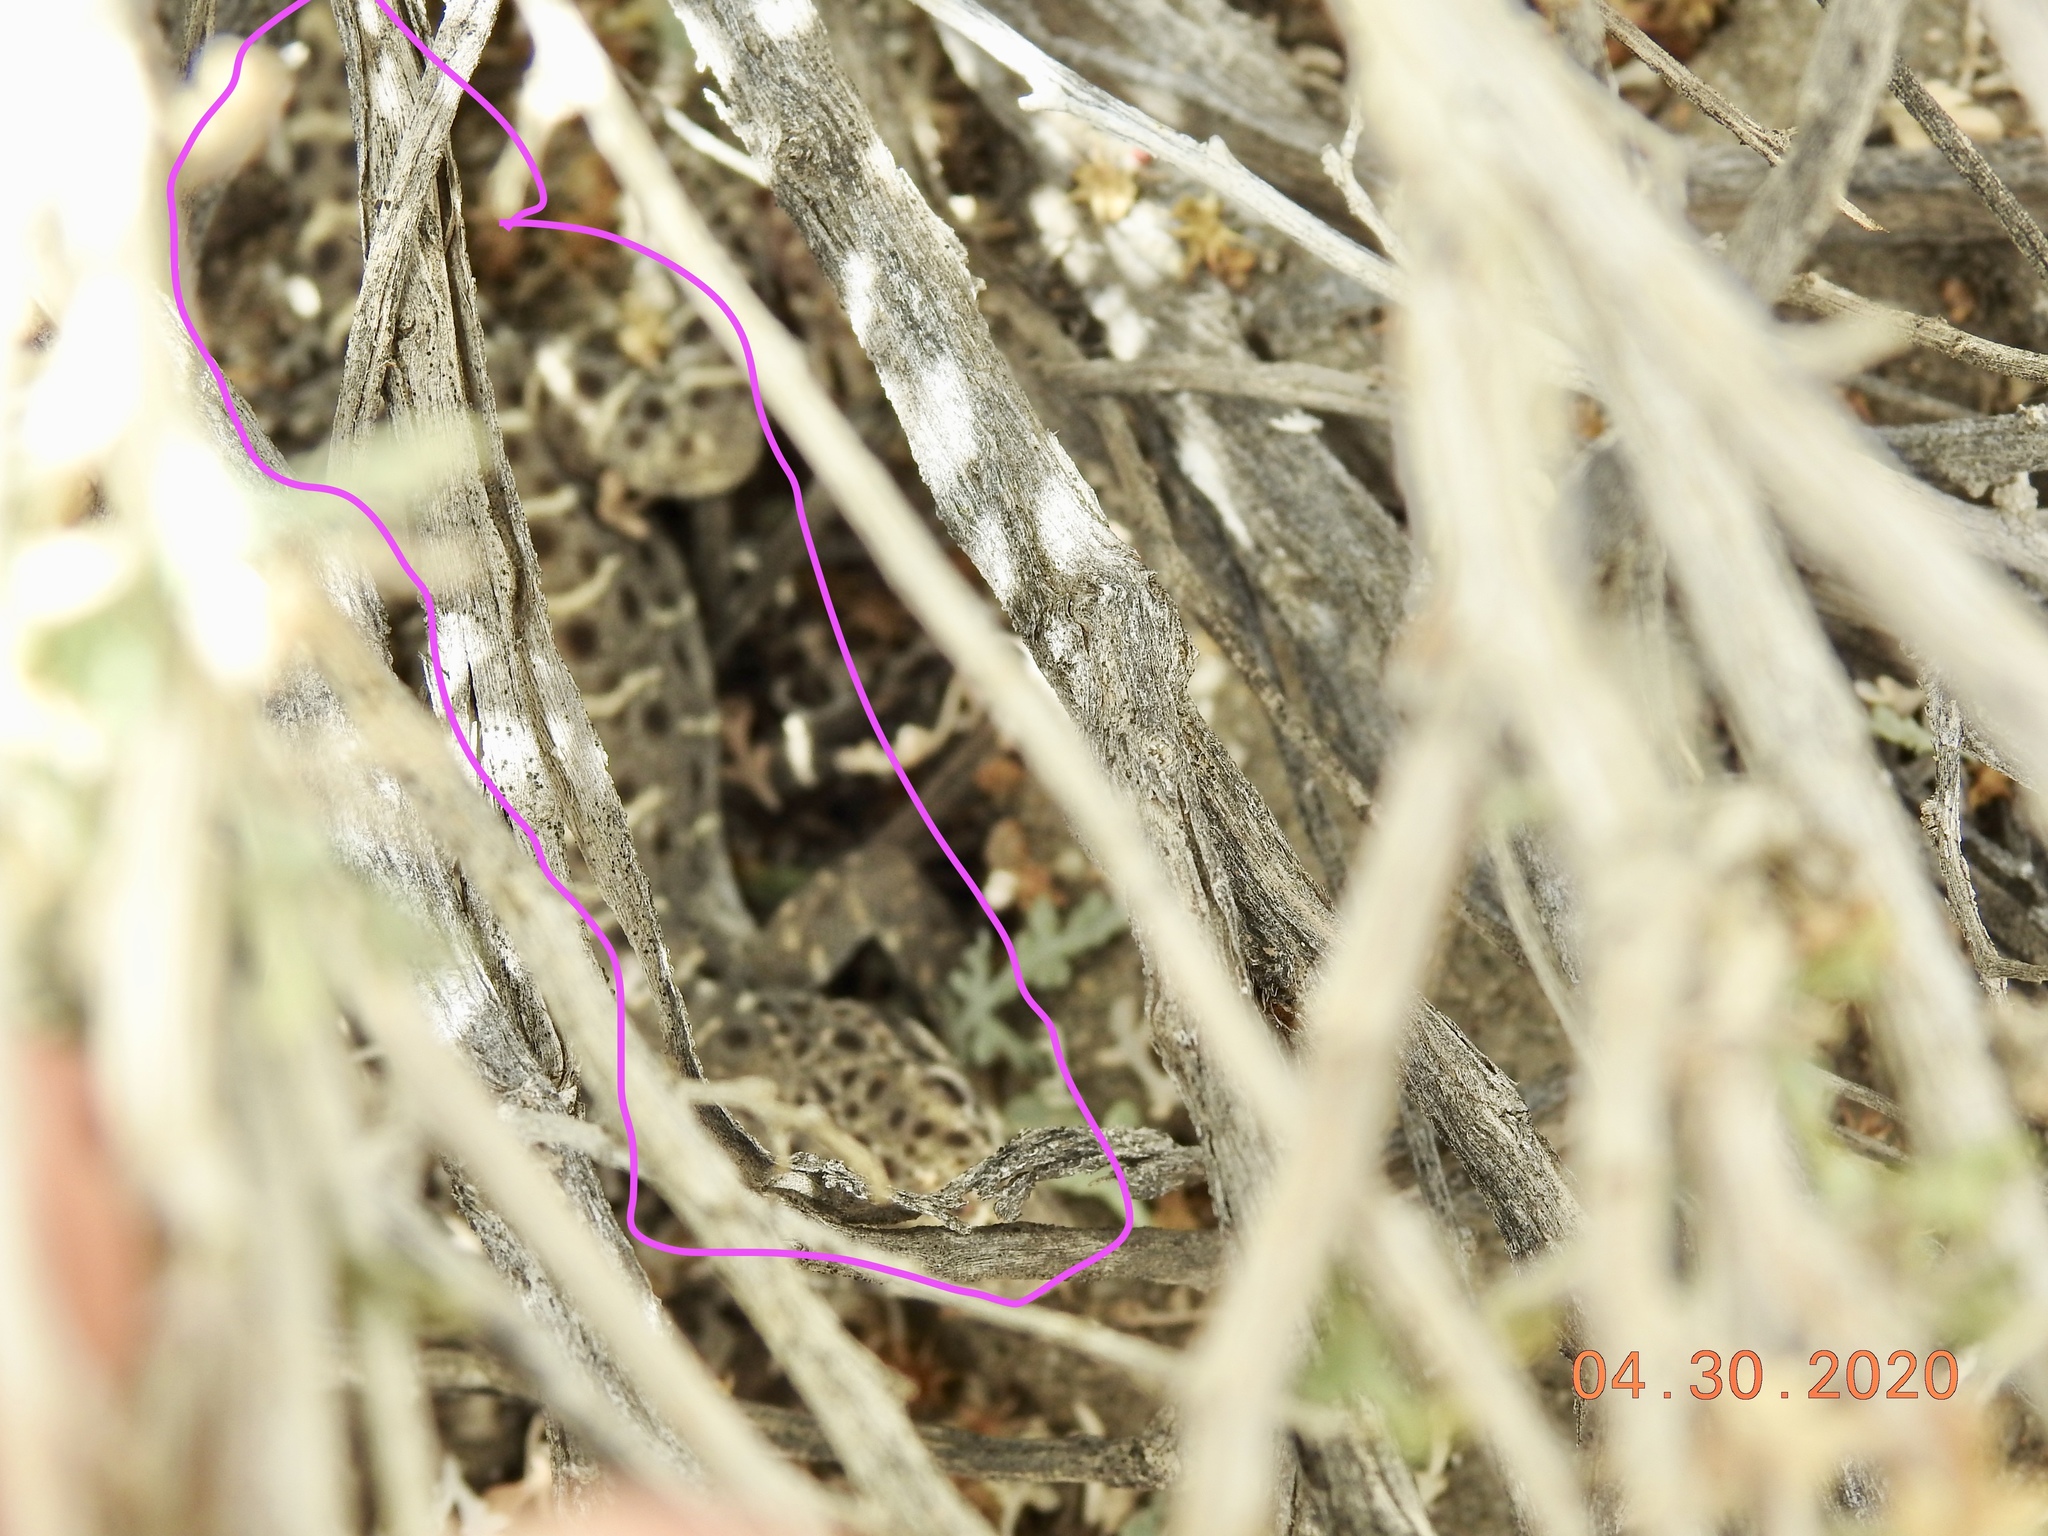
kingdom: Animalia
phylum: Chordata
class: Squamata
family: Crotaphytidae
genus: Gambelia
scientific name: Gambelia wislizenii
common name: Longnose leopard lizard
